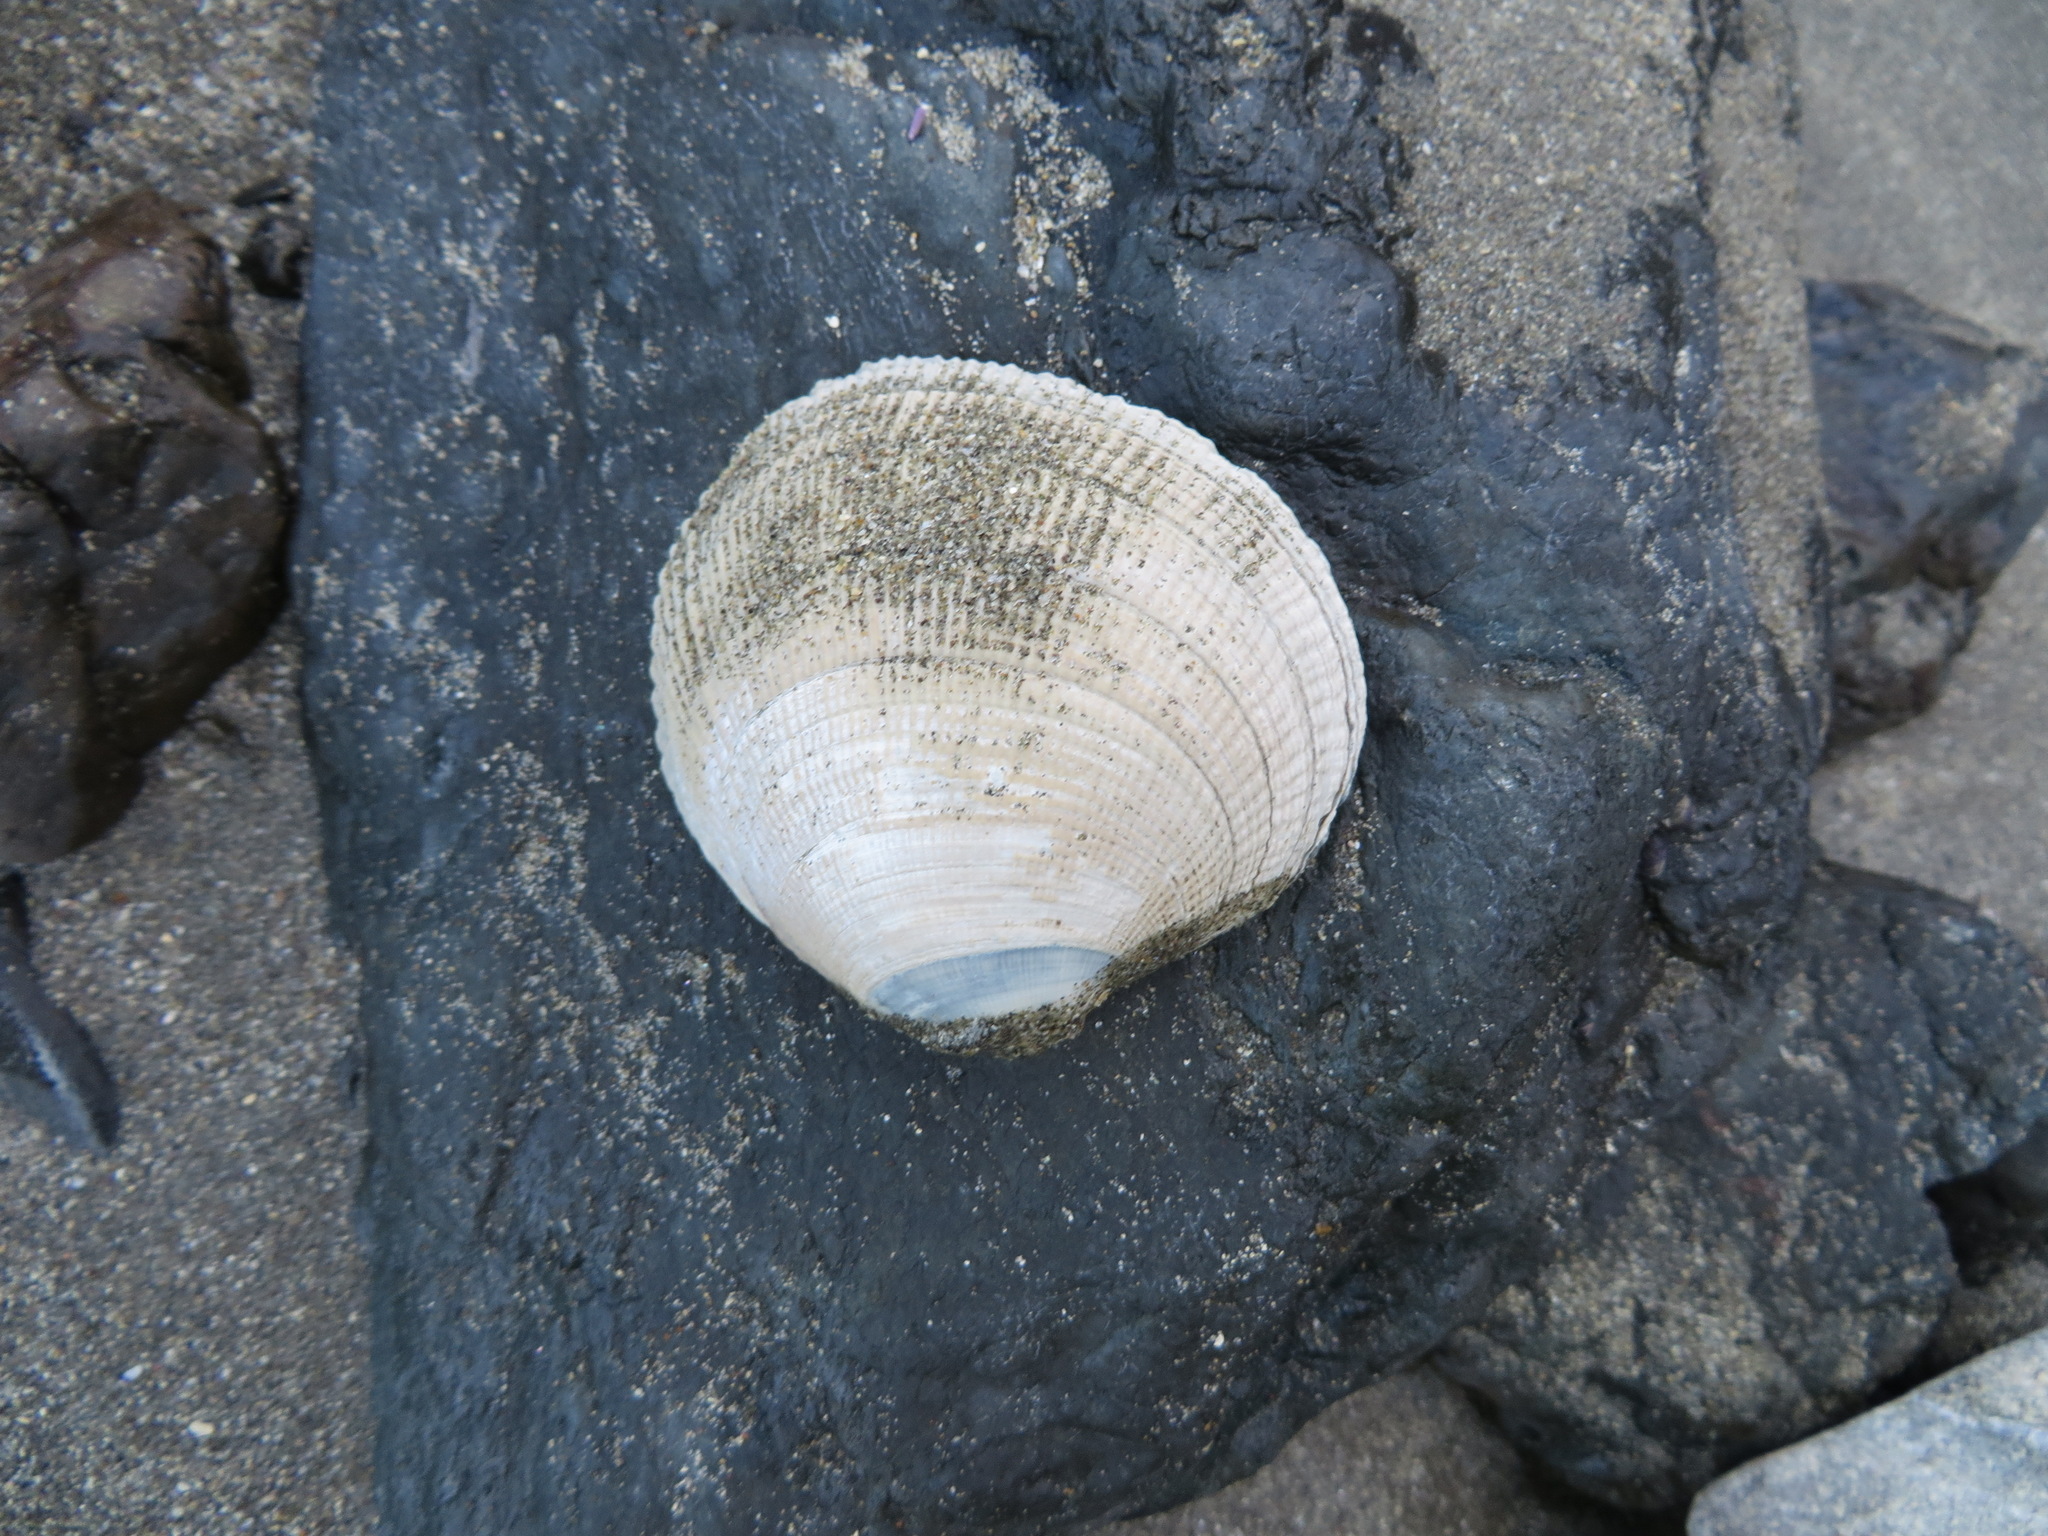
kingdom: Animalia
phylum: Mollusca
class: Bivalvia
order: Venerida
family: Veneridae
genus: Leukoma
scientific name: Leukoma staminea
